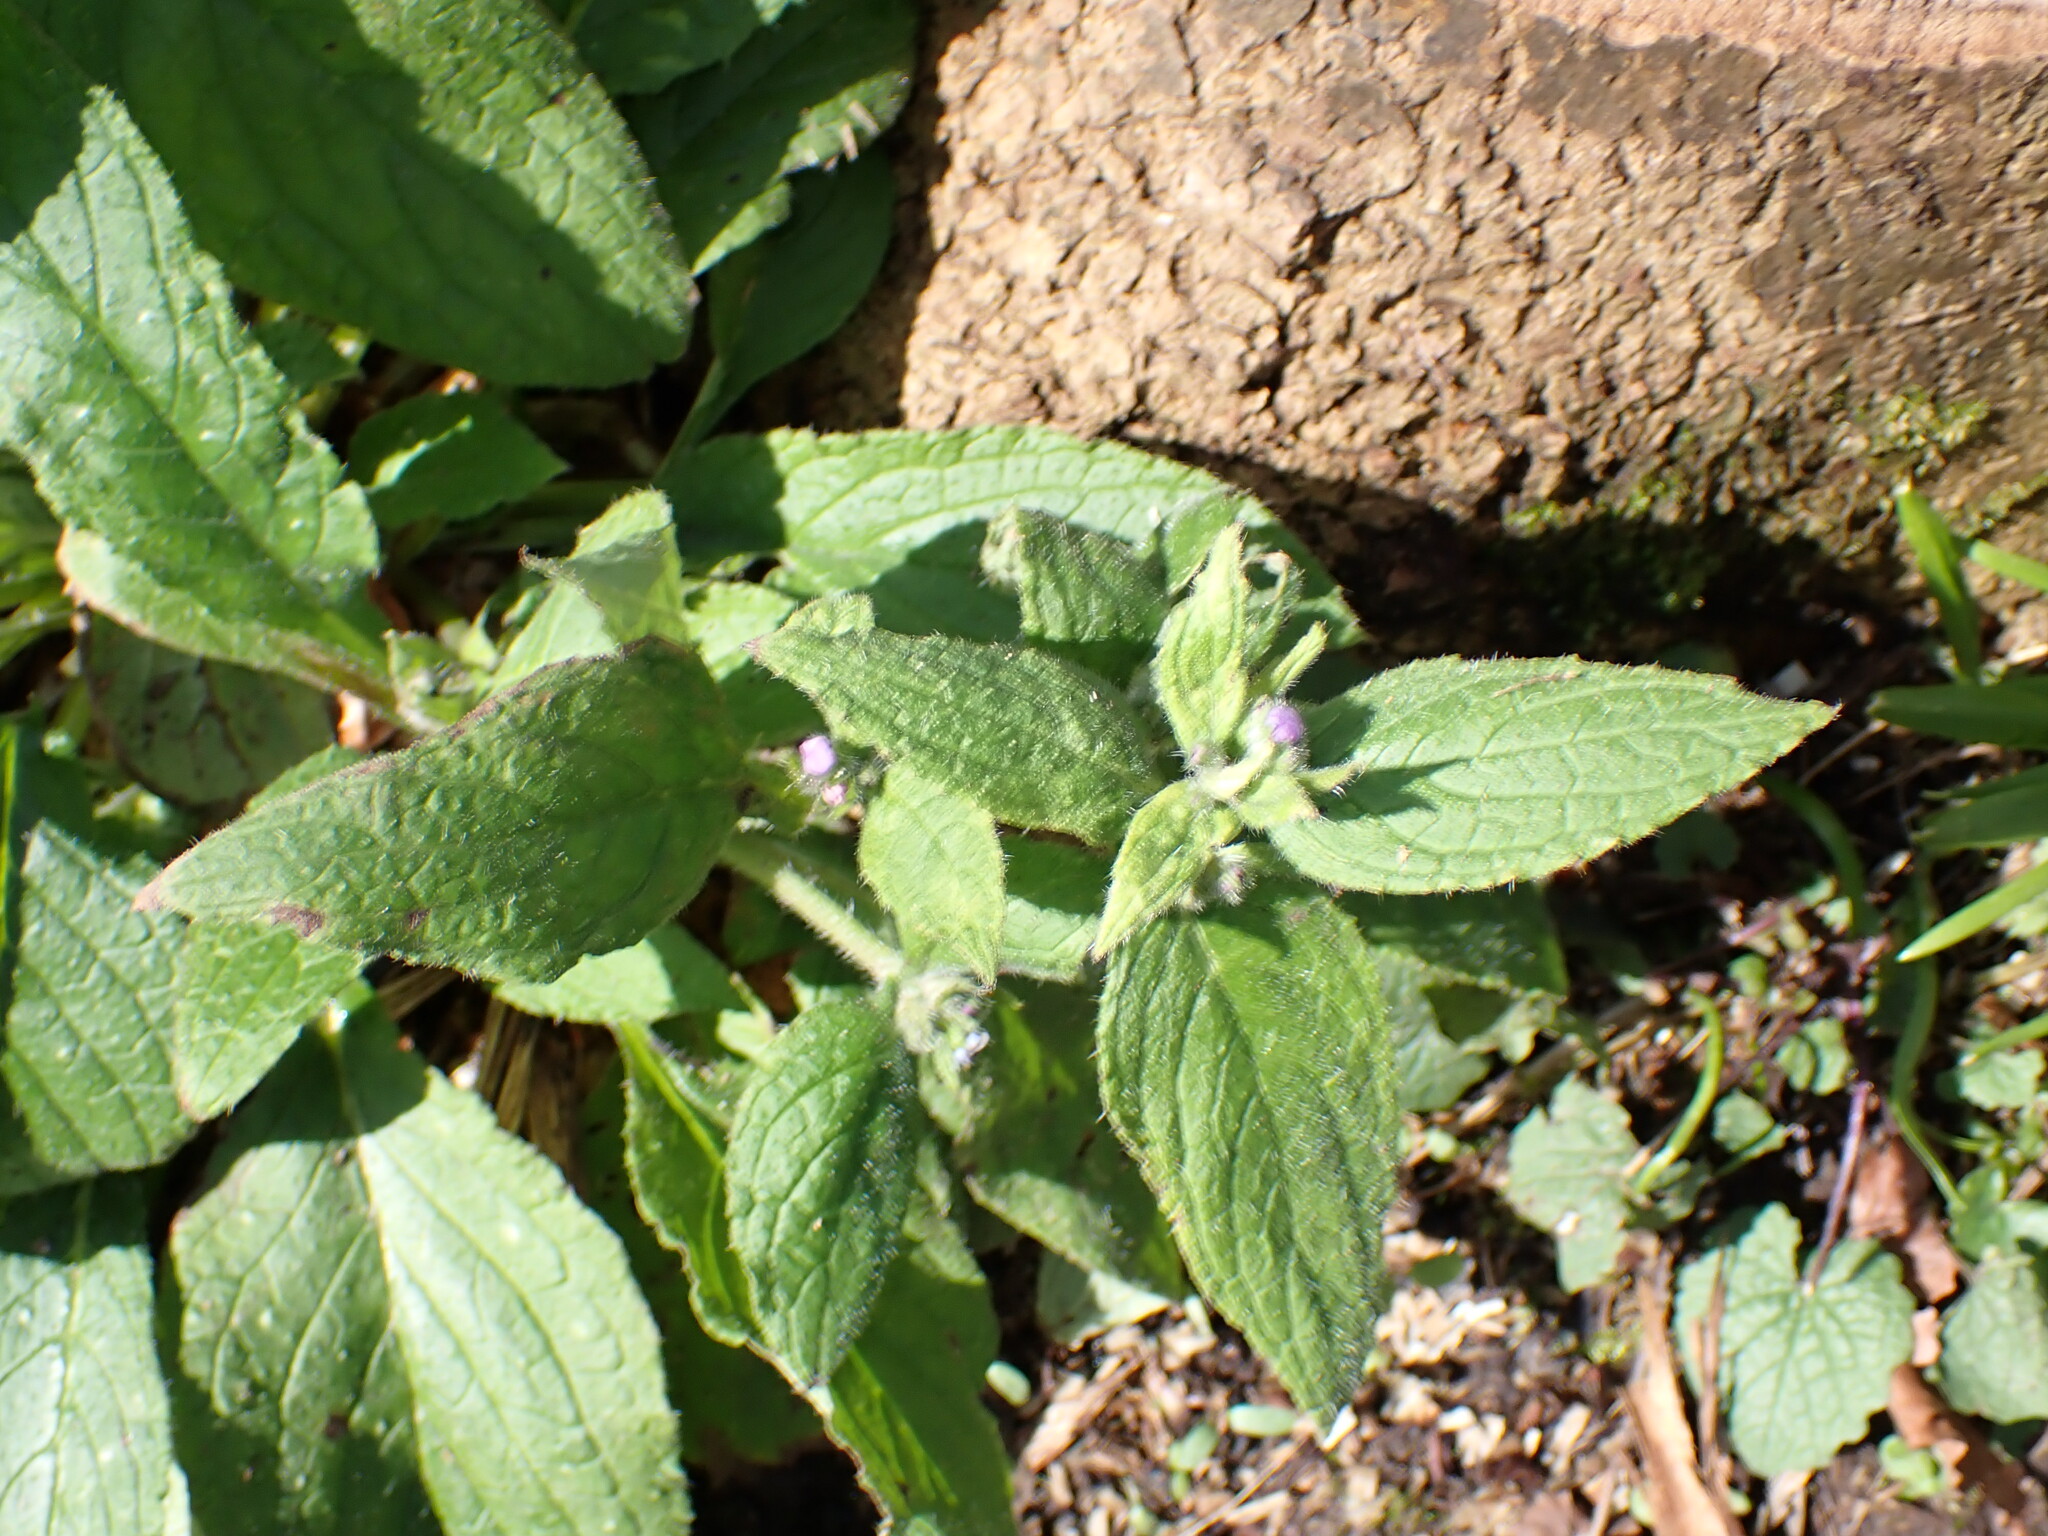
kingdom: Plantae
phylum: Tracheophyta
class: Magnoliopsida
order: Boraginales
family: Boraginaceae
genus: Pentaglottis
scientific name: Pentaglottis sempervirens
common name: Green alkanet
